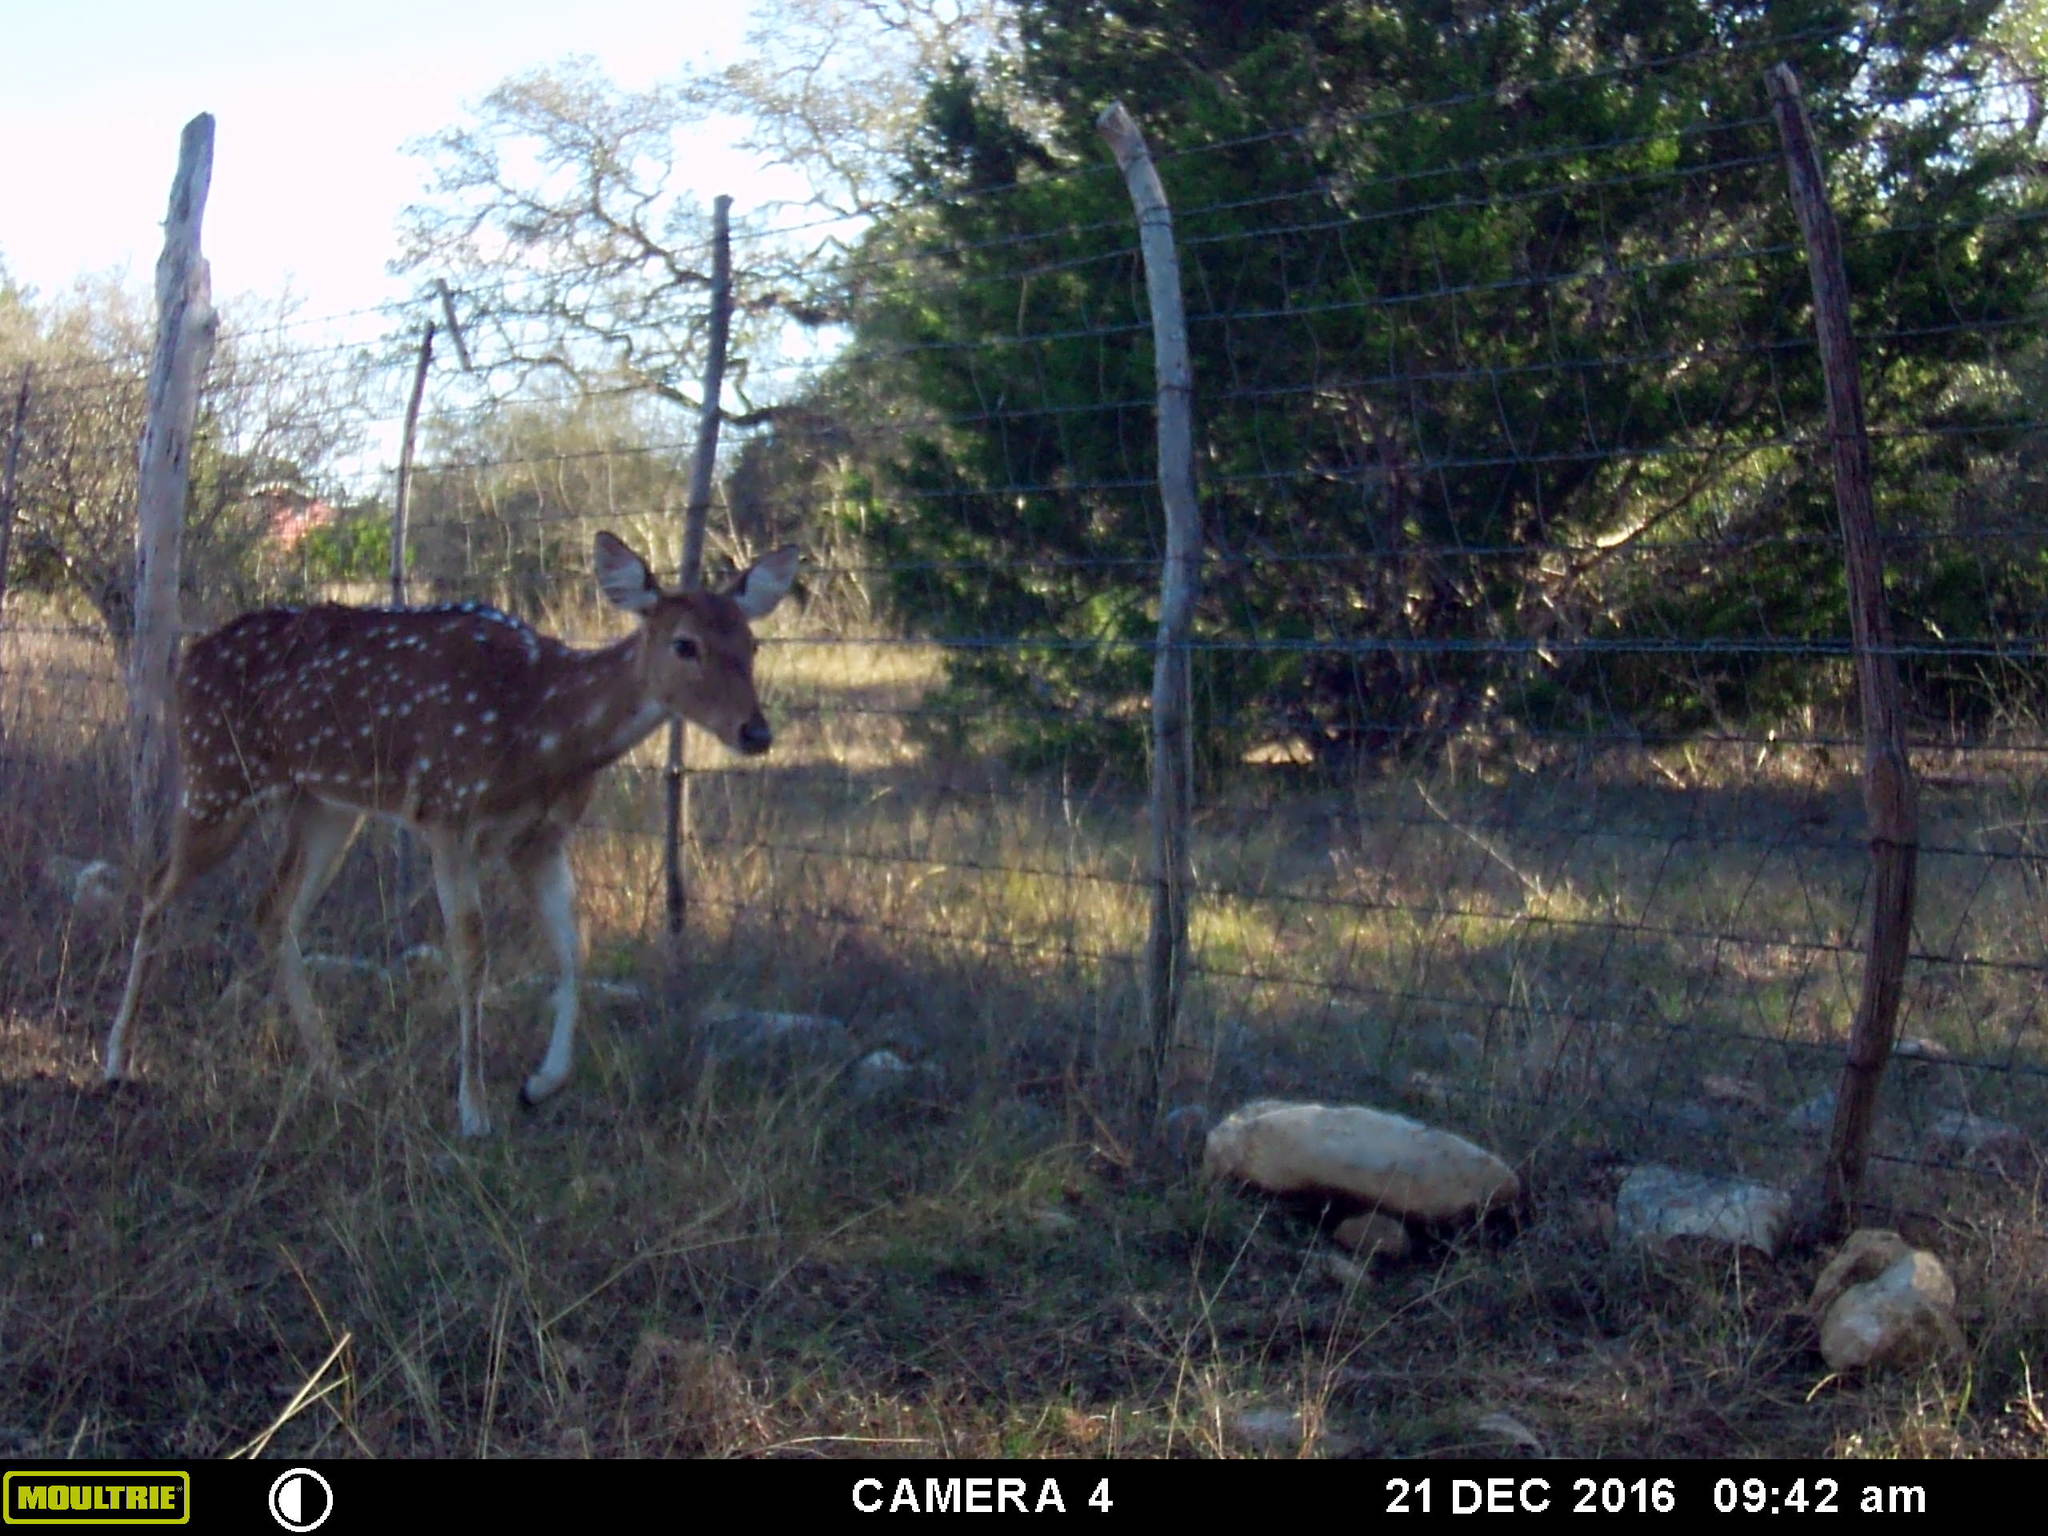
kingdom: Animalia
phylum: Chordata
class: Mammalia
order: Artiodactyla
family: Cervidae
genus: Axis
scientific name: Axis axis
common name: Chital
